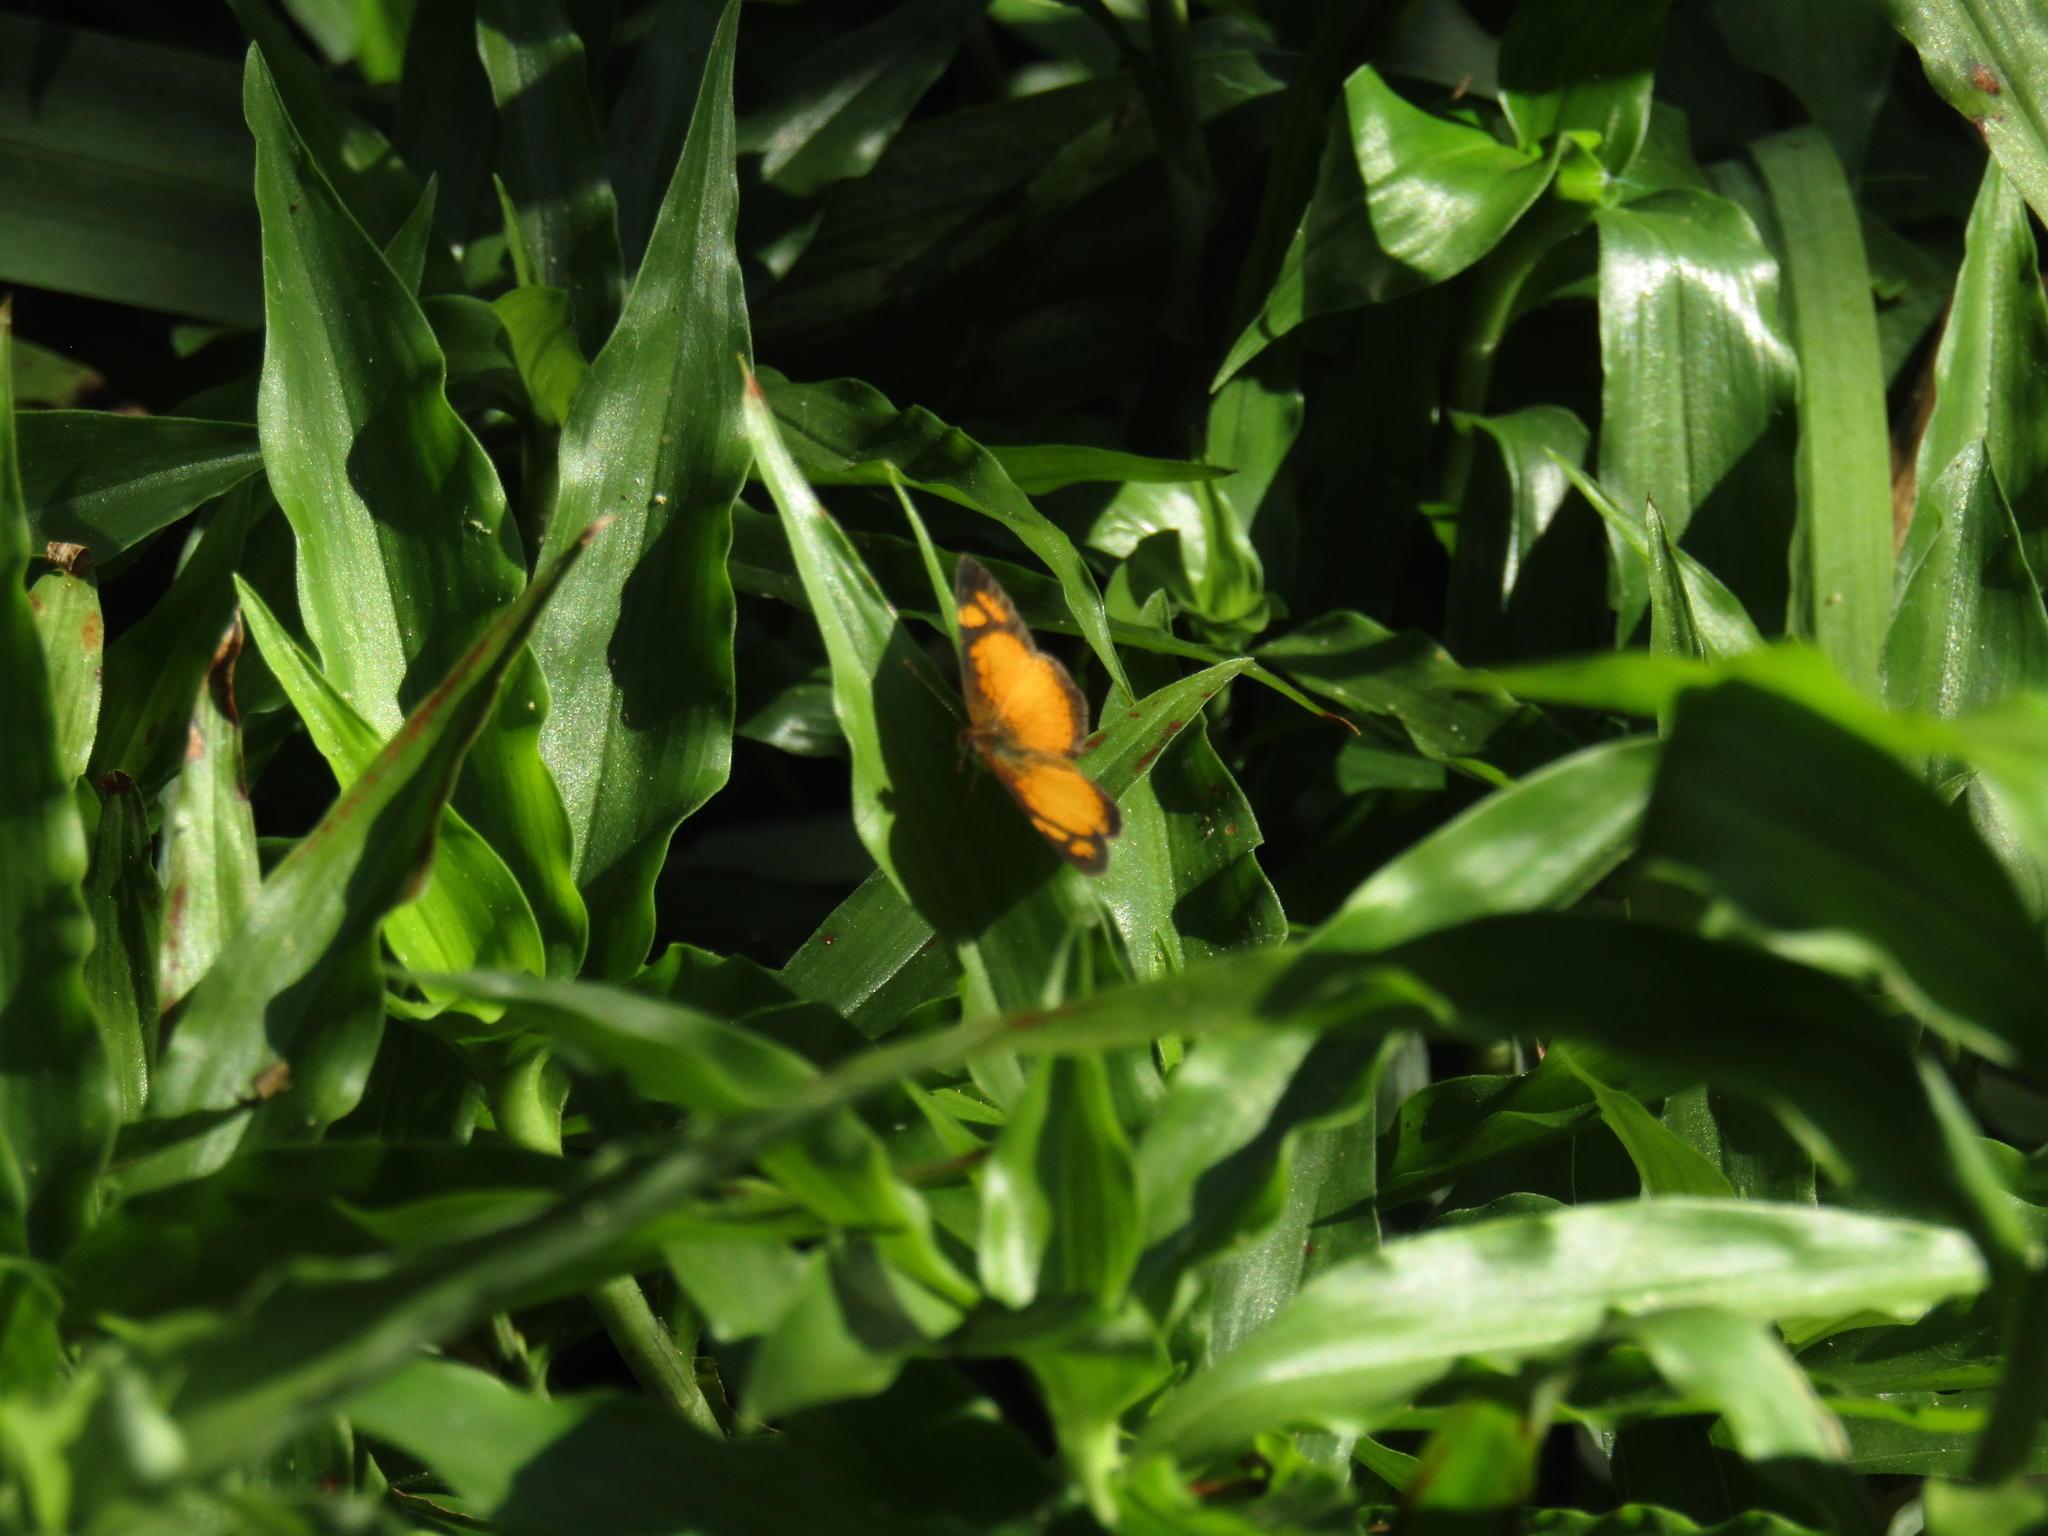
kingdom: Animalia
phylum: Arthropoda
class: Insecta
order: Lepidoptera
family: Nymphalidae
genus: Tegosa
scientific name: Tegosa claudina
